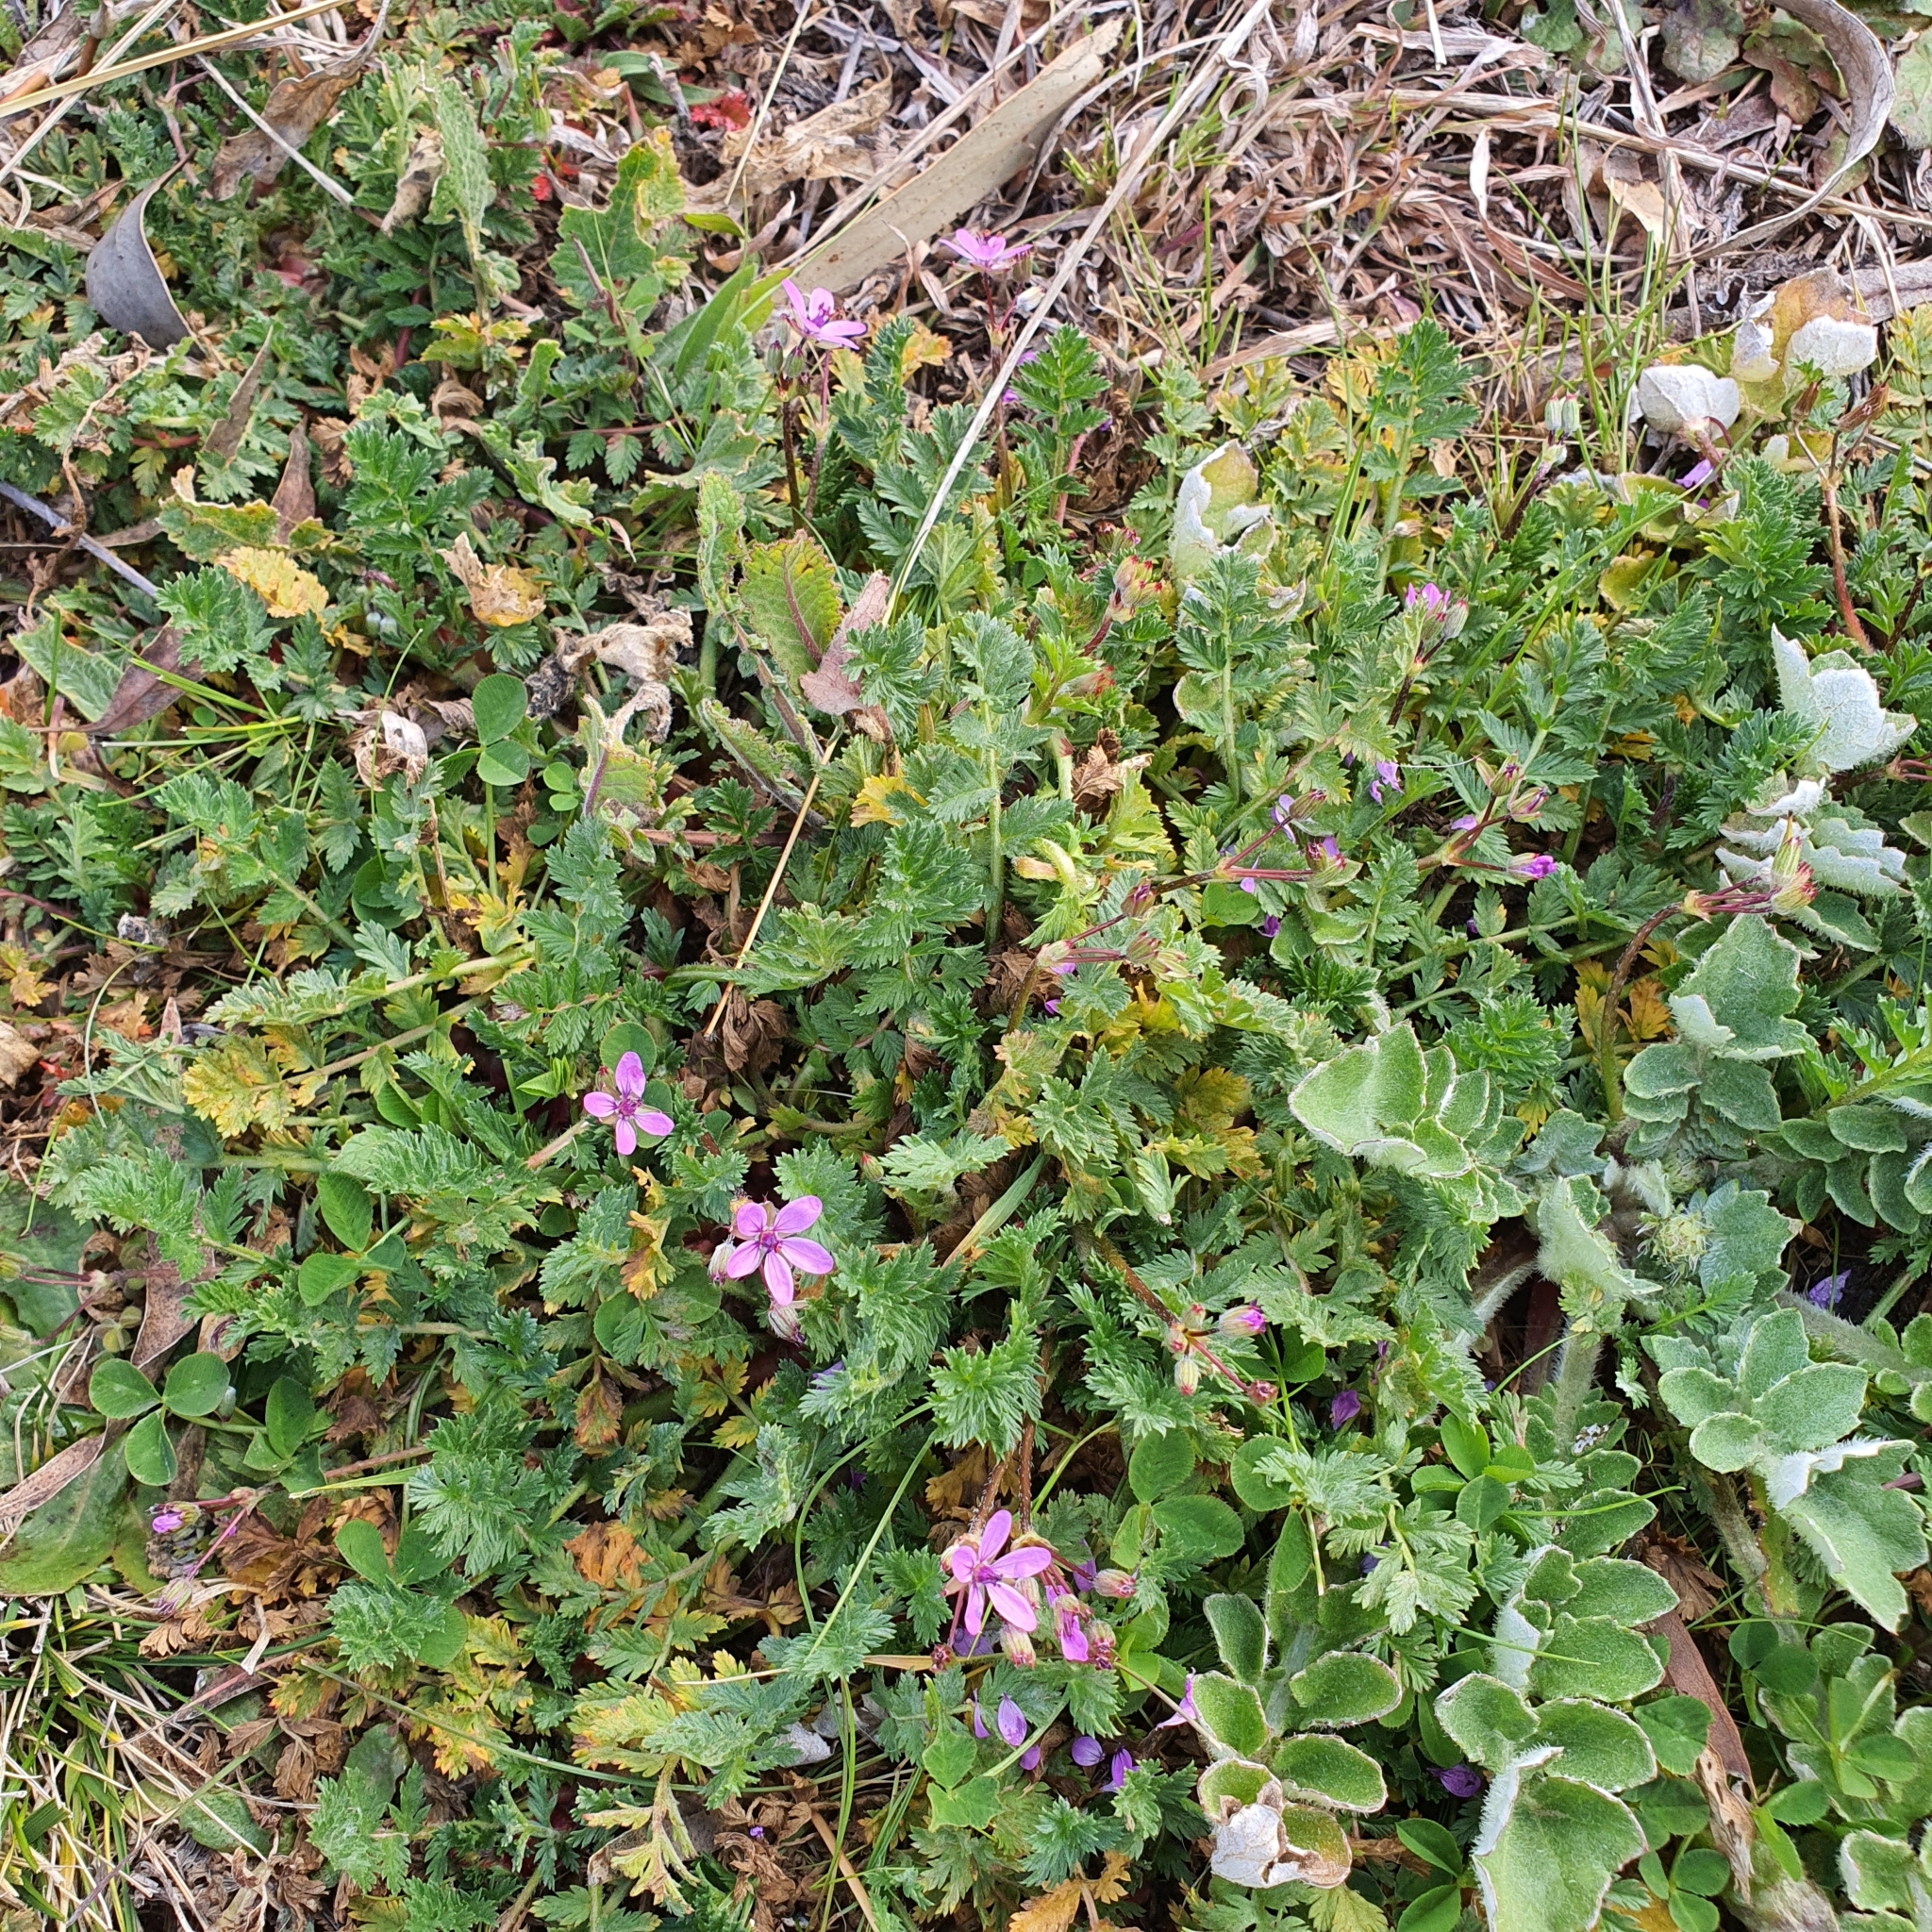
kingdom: Plantae
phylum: Tracheophyta
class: Magnoliopsida
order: Geraniales
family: Geraniaceae
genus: Erodium
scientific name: Erodium cicutarium
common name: Common stork's-bill
